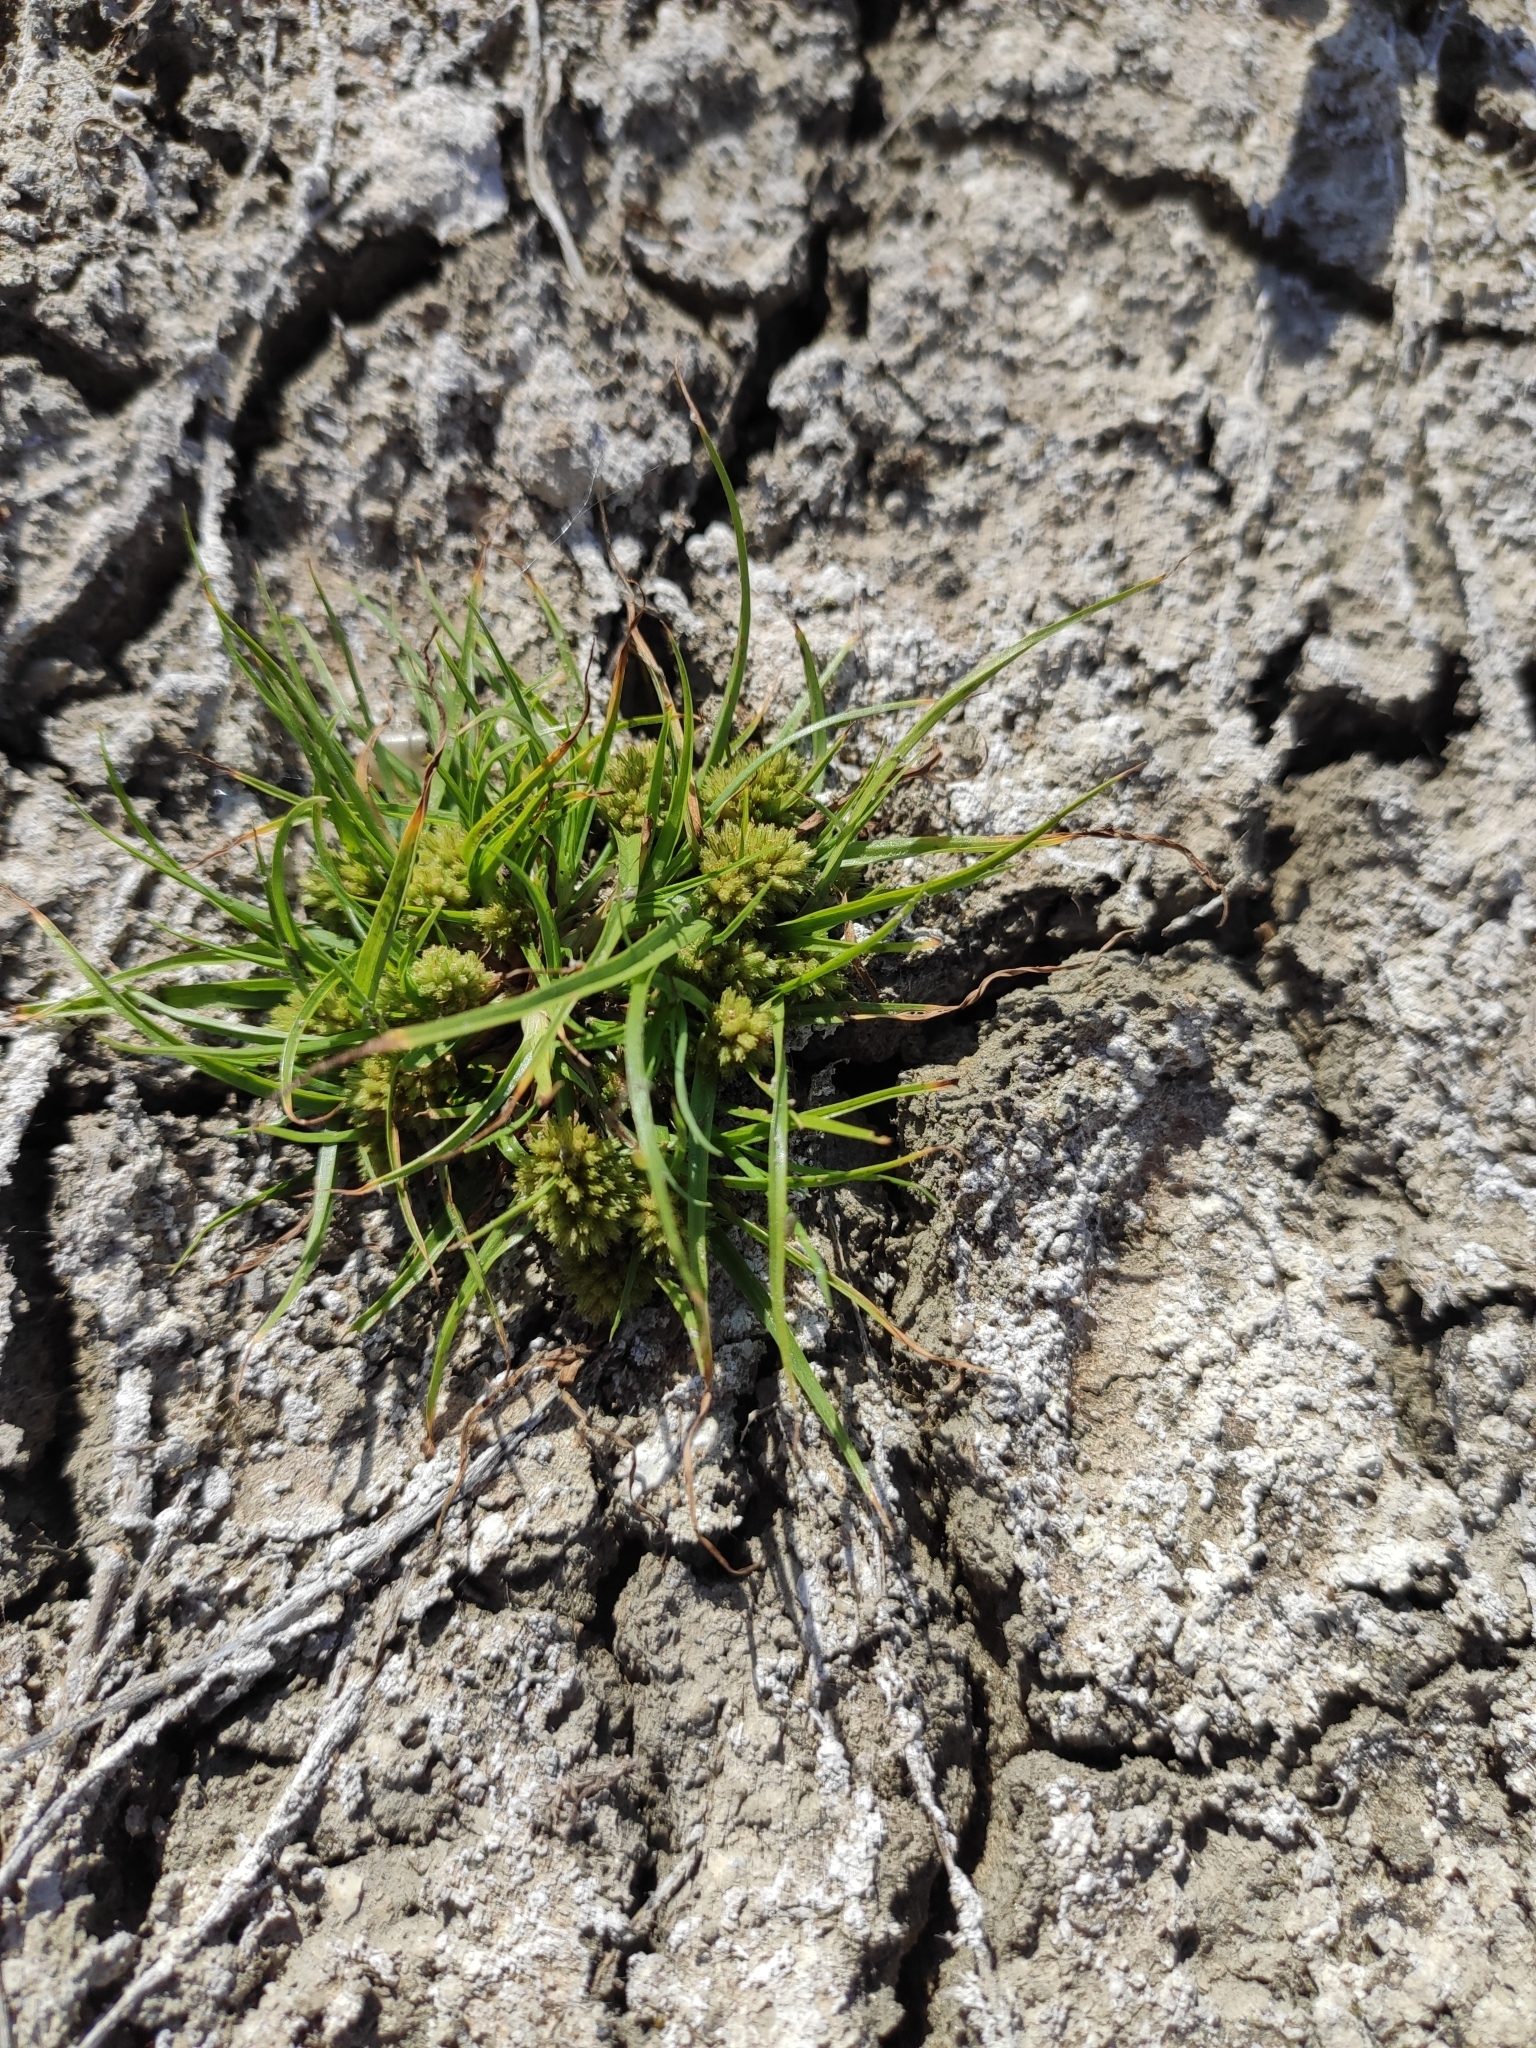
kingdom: Plantae
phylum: Tracheophyta
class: Liliopsida
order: Poales
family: Cyperaceae
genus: Cyperus
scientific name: Cyperus michelianus
